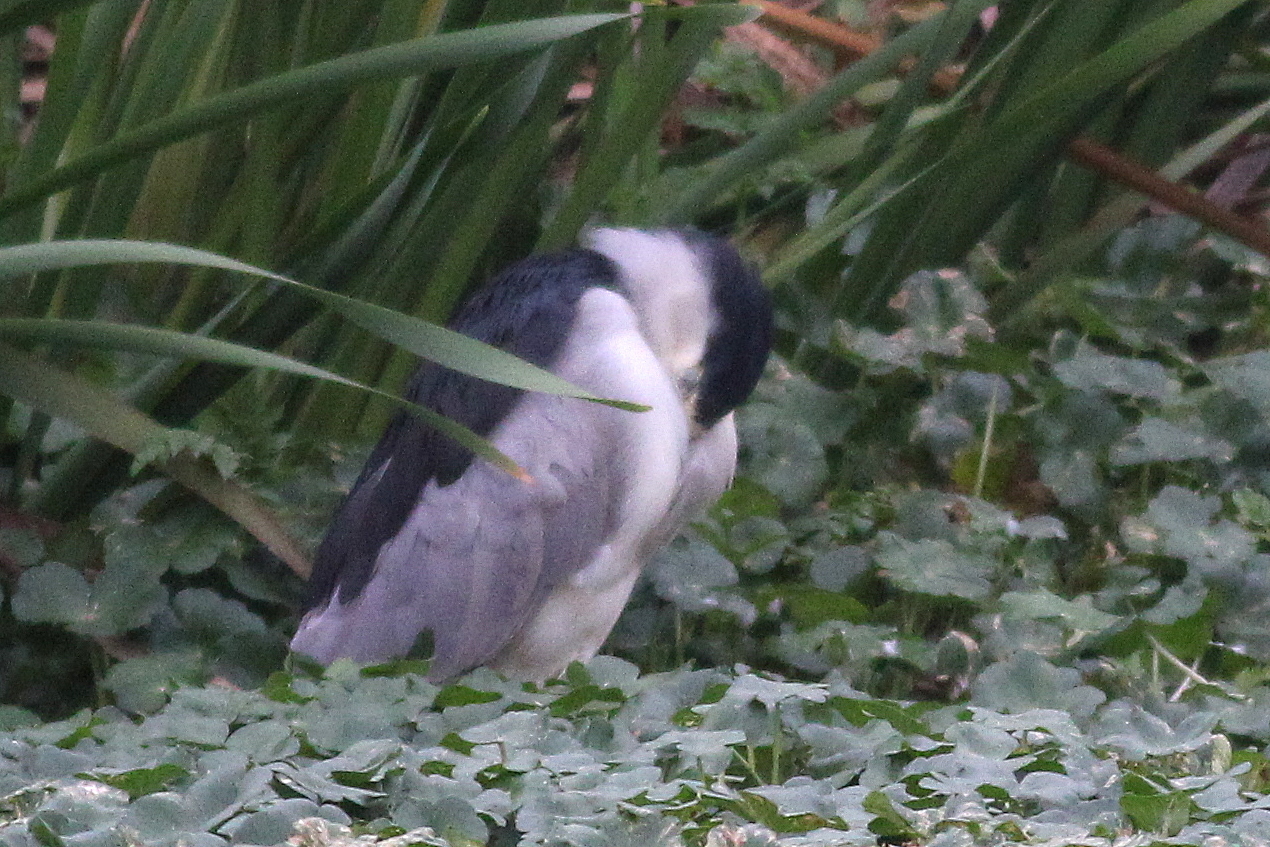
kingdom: Animalia
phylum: Chordata
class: Aves
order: Pelecaniformes
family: Ardeidae
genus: Nycticorax
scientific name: Nycticorax nycticorax
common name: Black-crowned night heron
